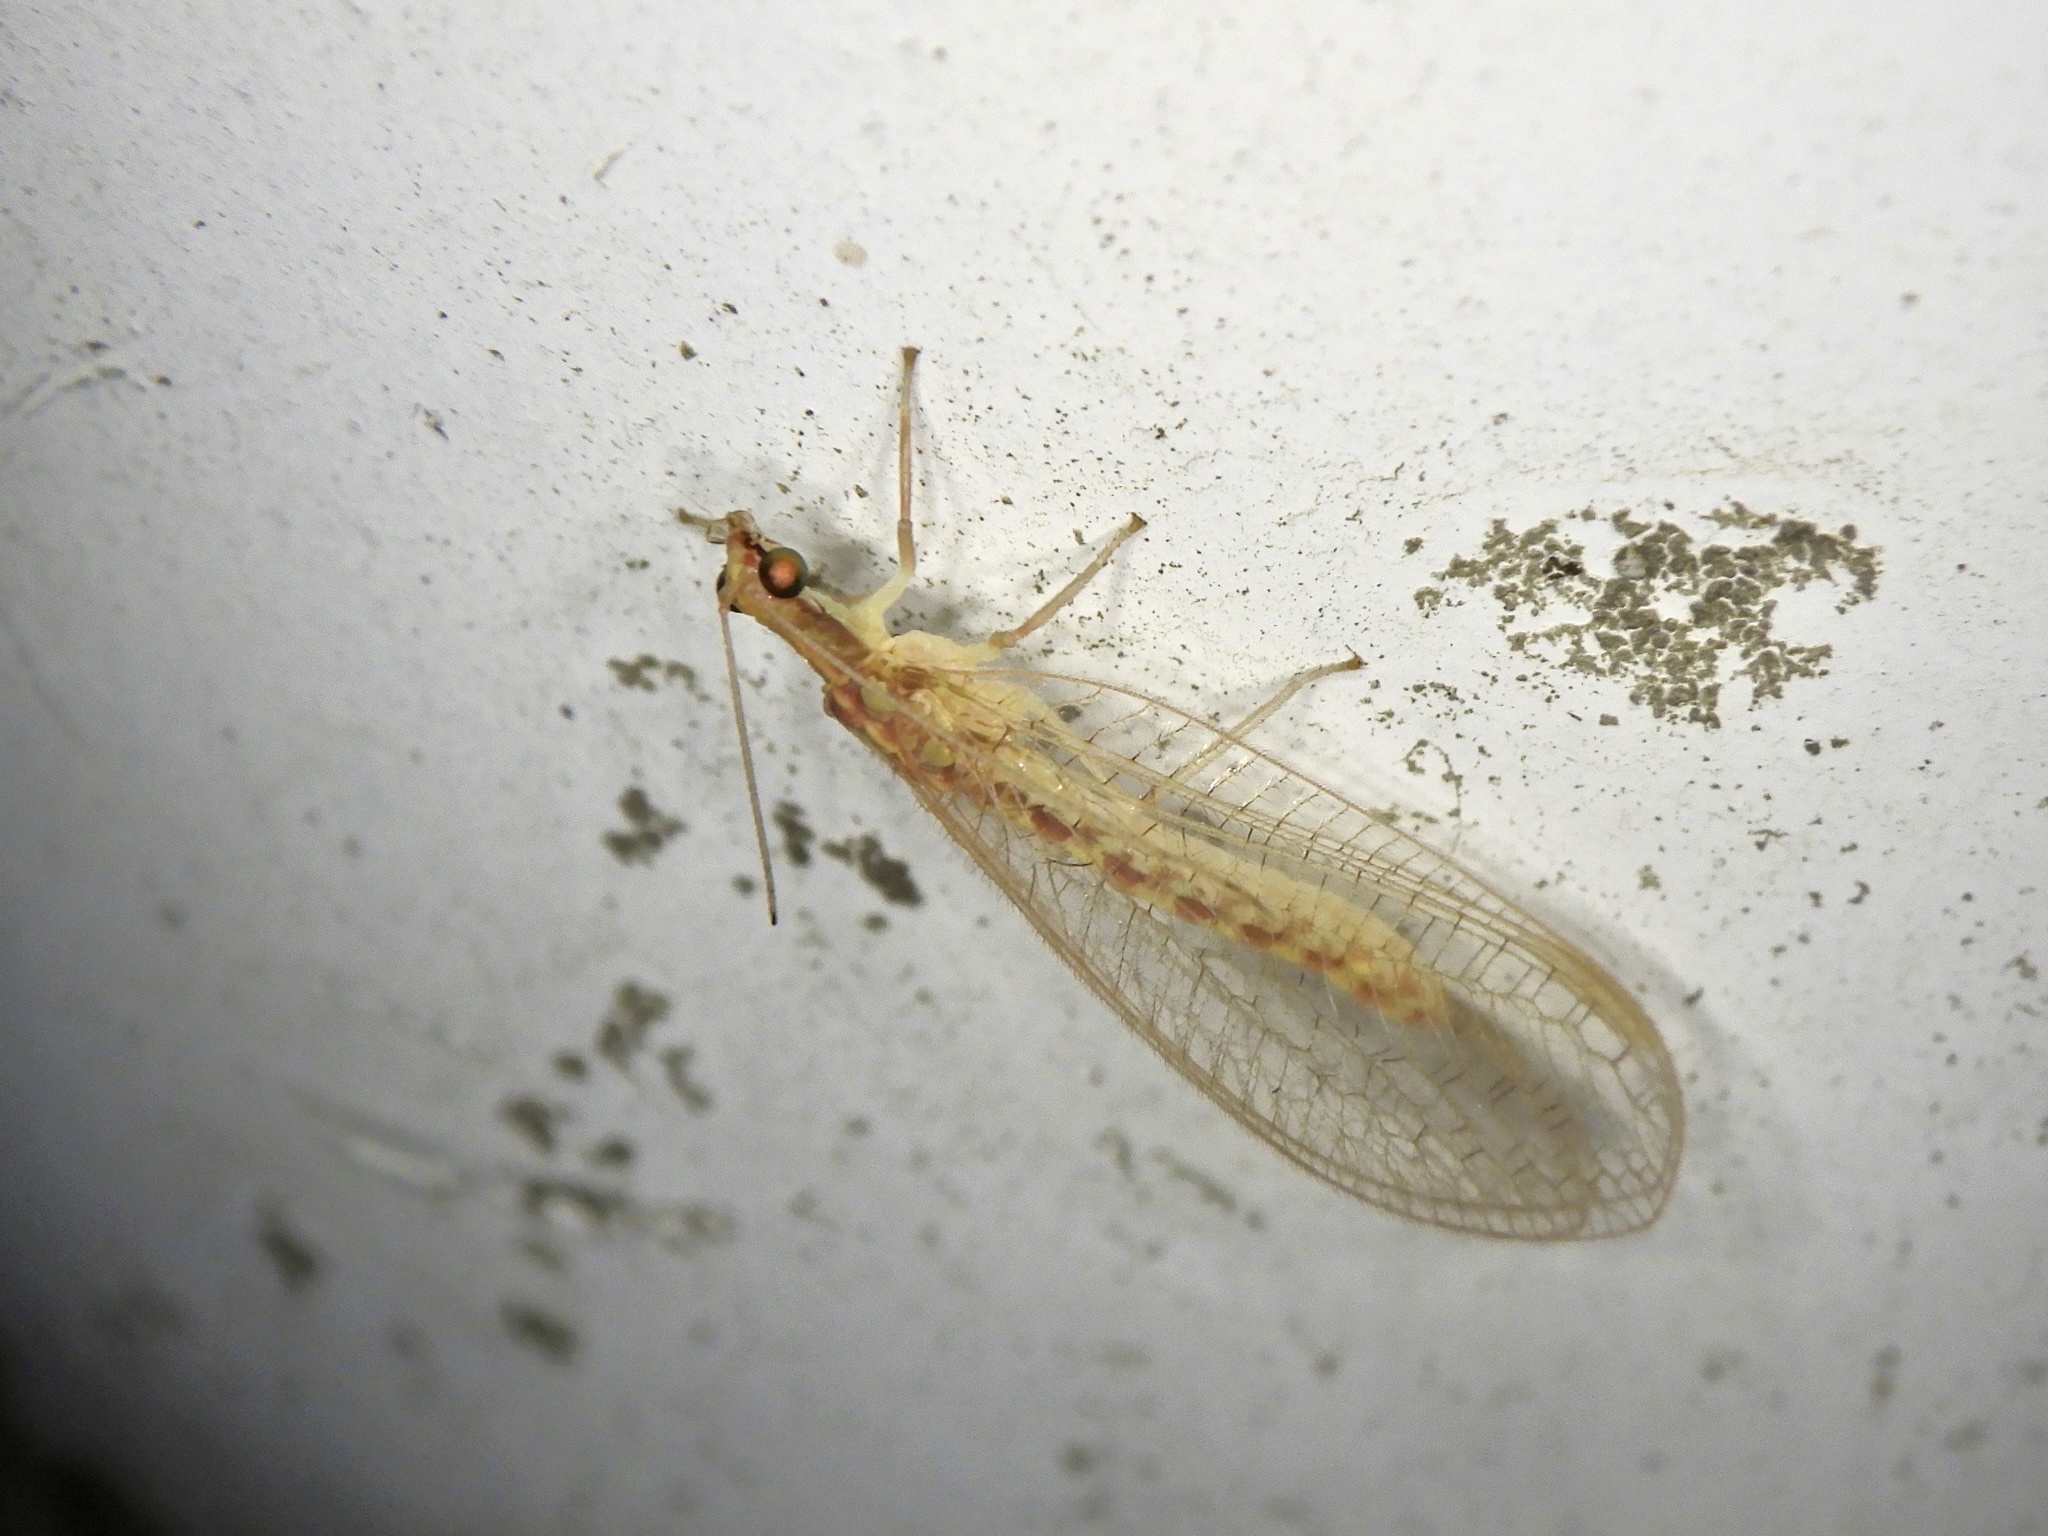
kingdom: Animalia
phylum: Arthropoda
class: Insecta
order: Neuroptera
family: Chrysopidae
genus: Chrysoperla
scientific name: Chrysoperla nipponensis
